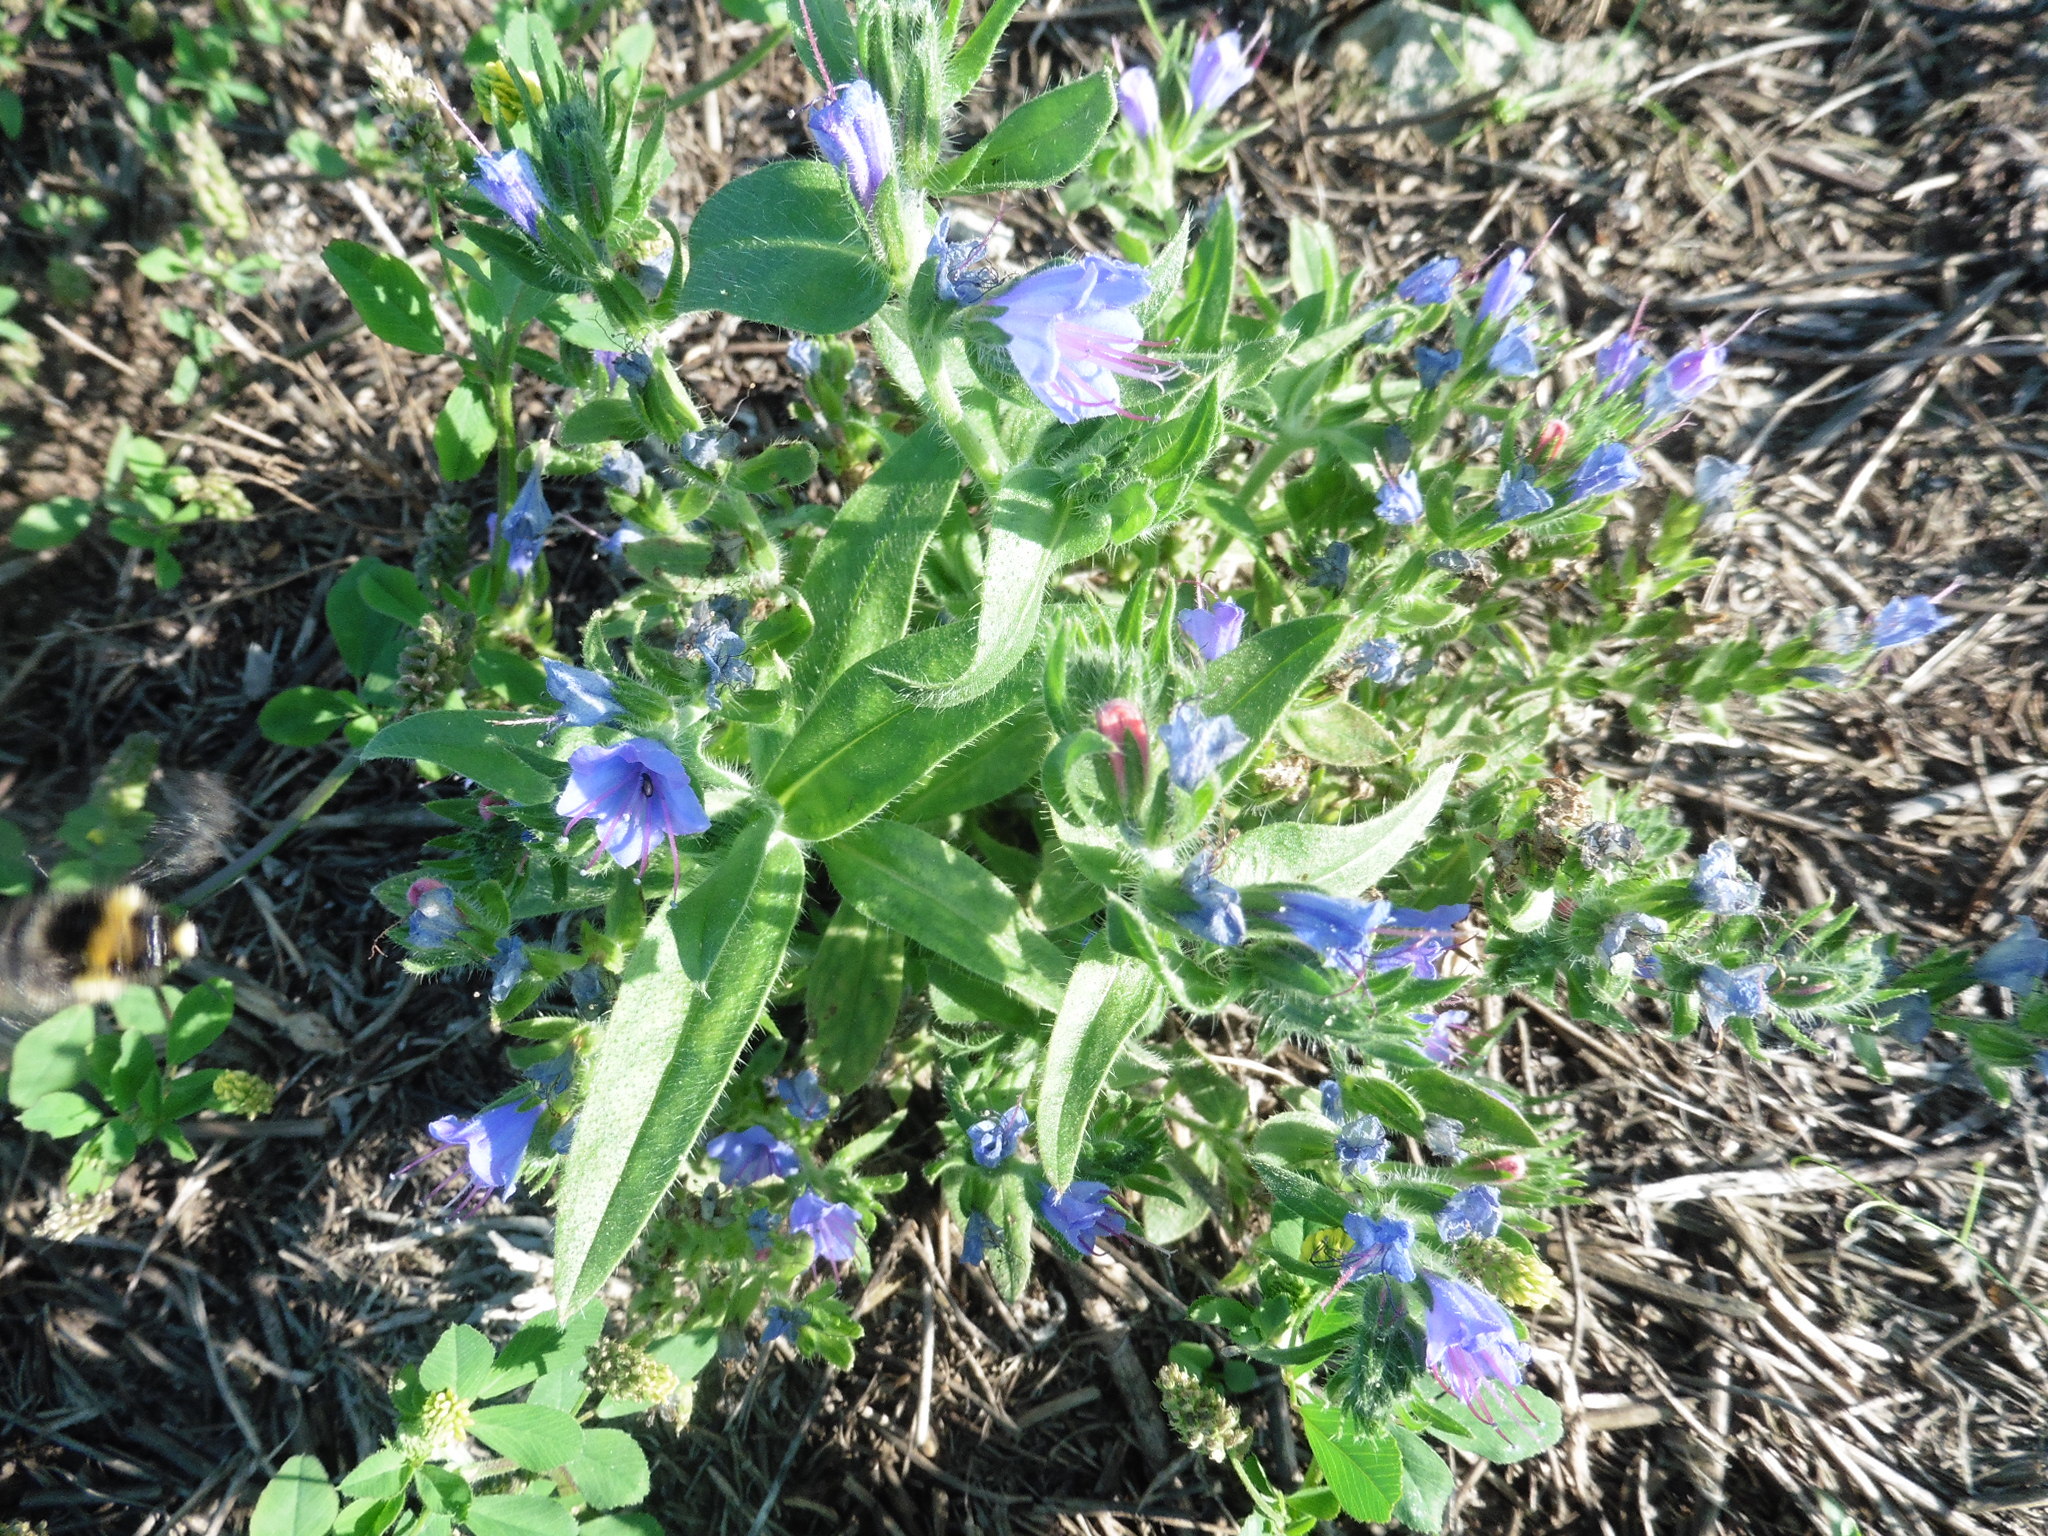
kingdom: Plantae
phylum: Tracheophyta
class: Magnoliopsida
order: Boraginales
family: Boraginaceae
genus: Echium
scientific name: Echium vulgare
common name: Common viper's bugloss
